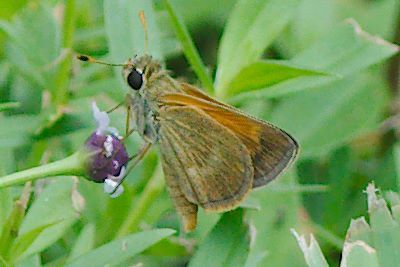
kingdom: Animalia
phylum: Arthropoda
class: Insecta
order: Lepidoptera
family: Hesperiidae
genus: Polites
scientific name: Polites baracoa
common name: Baracoa skipper
